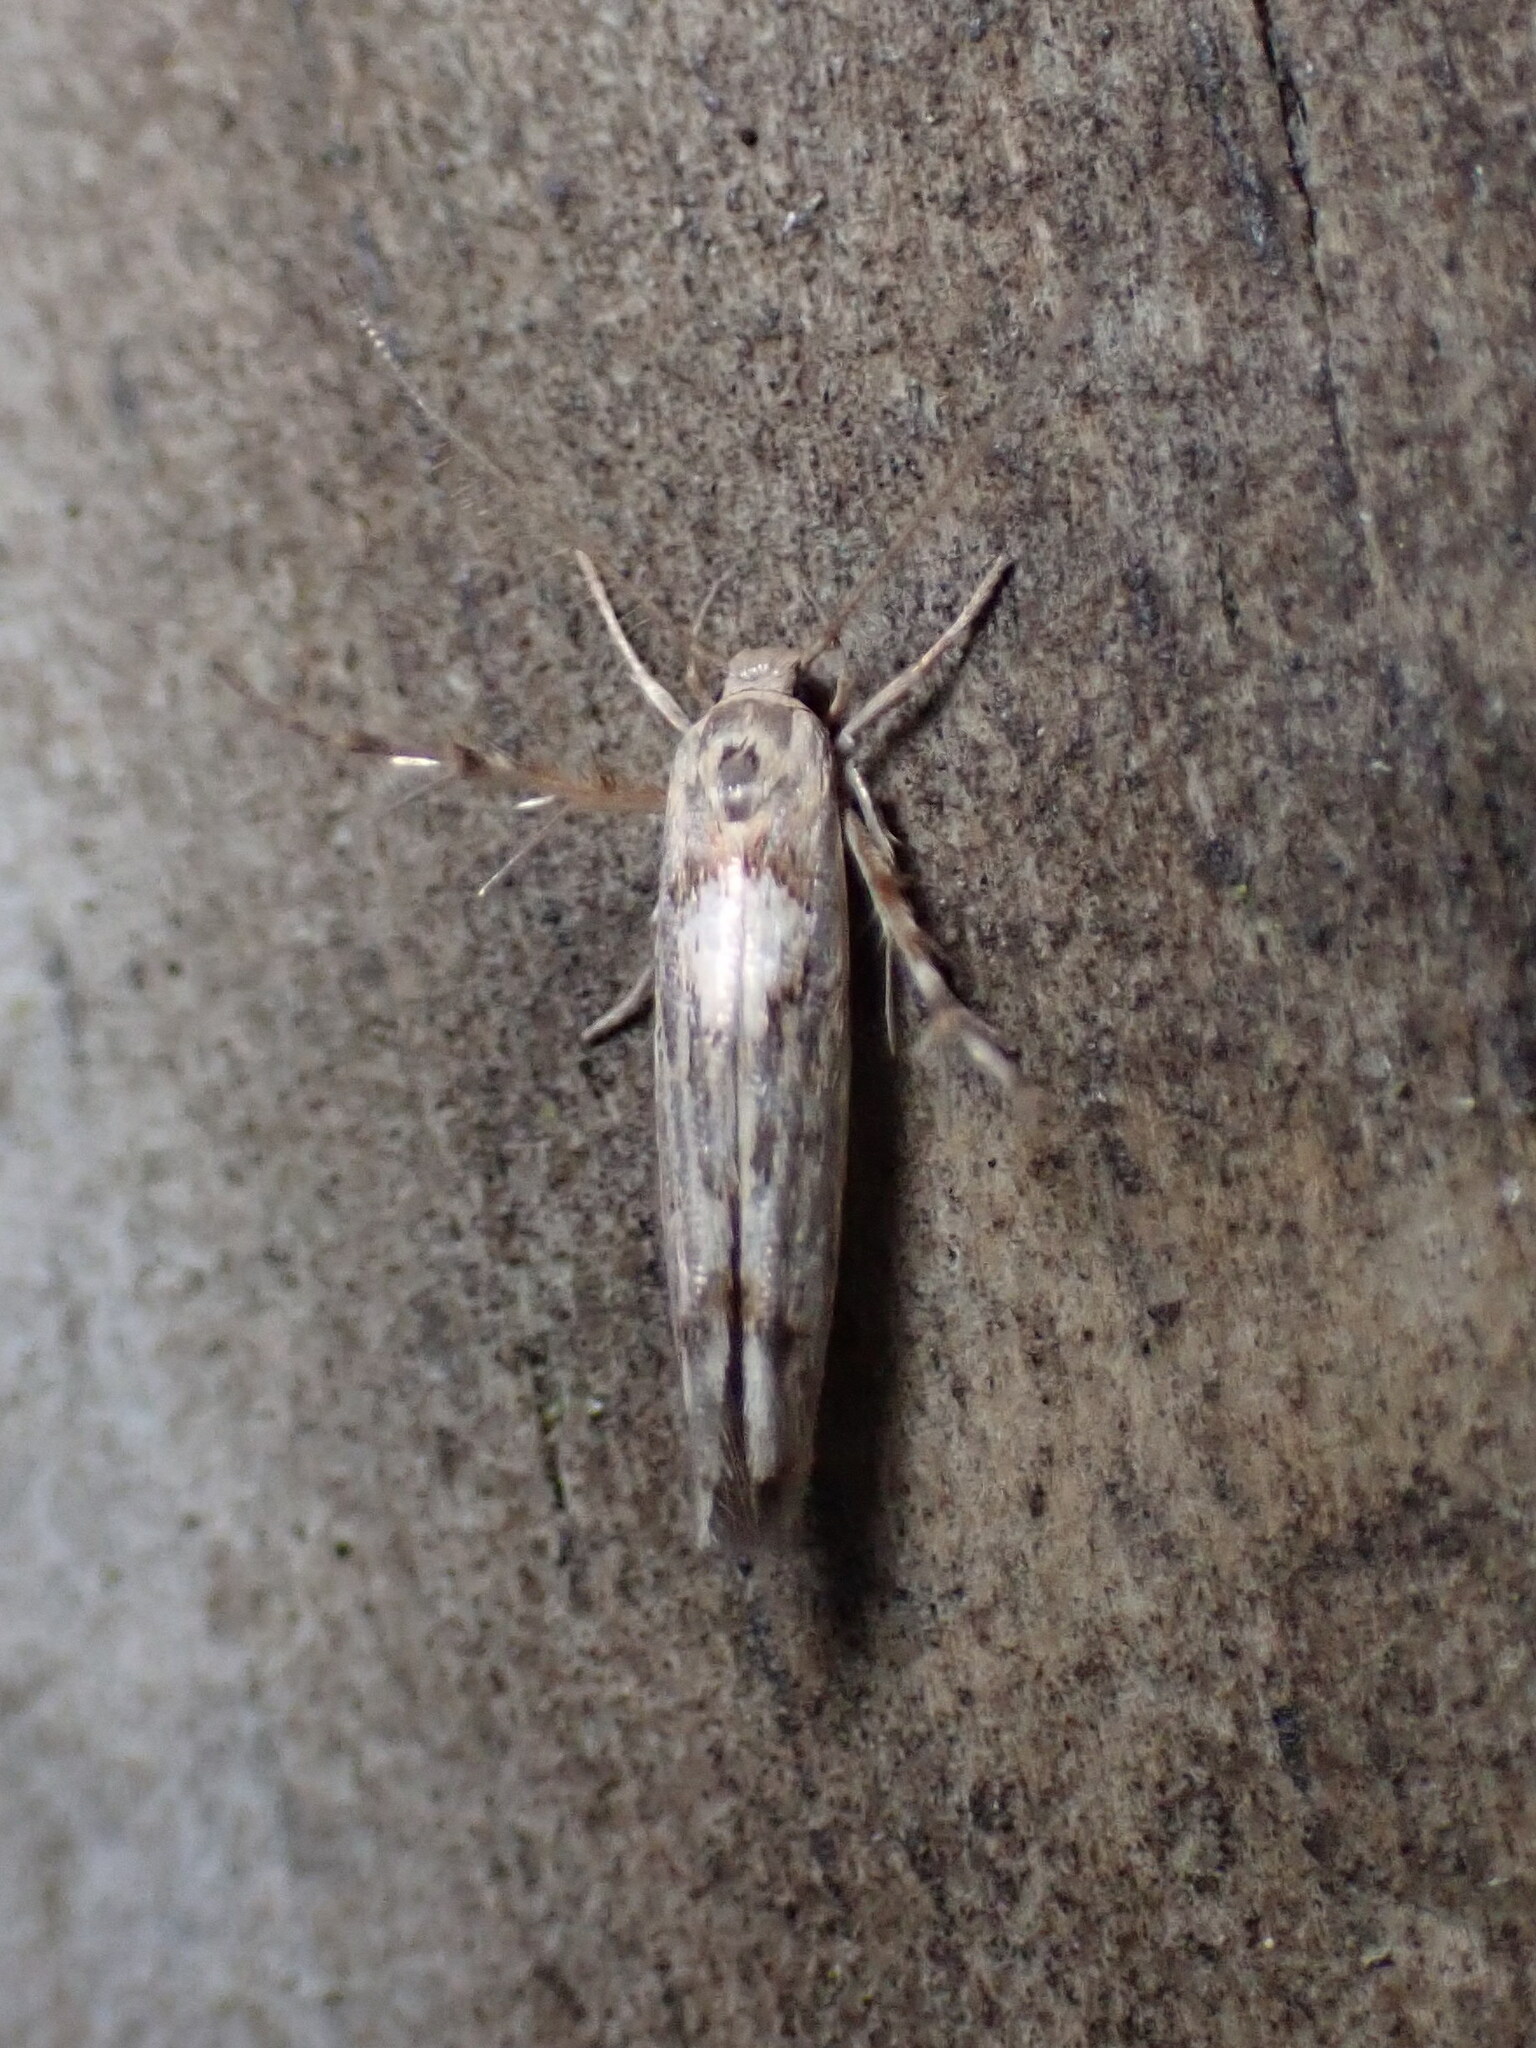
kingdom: Animalia
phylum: Arthropoda
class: Insecta
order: Lepidoptera
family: Stathmopodidae
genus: Stathmopoda
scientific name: Stathmopoda plumbiflua
